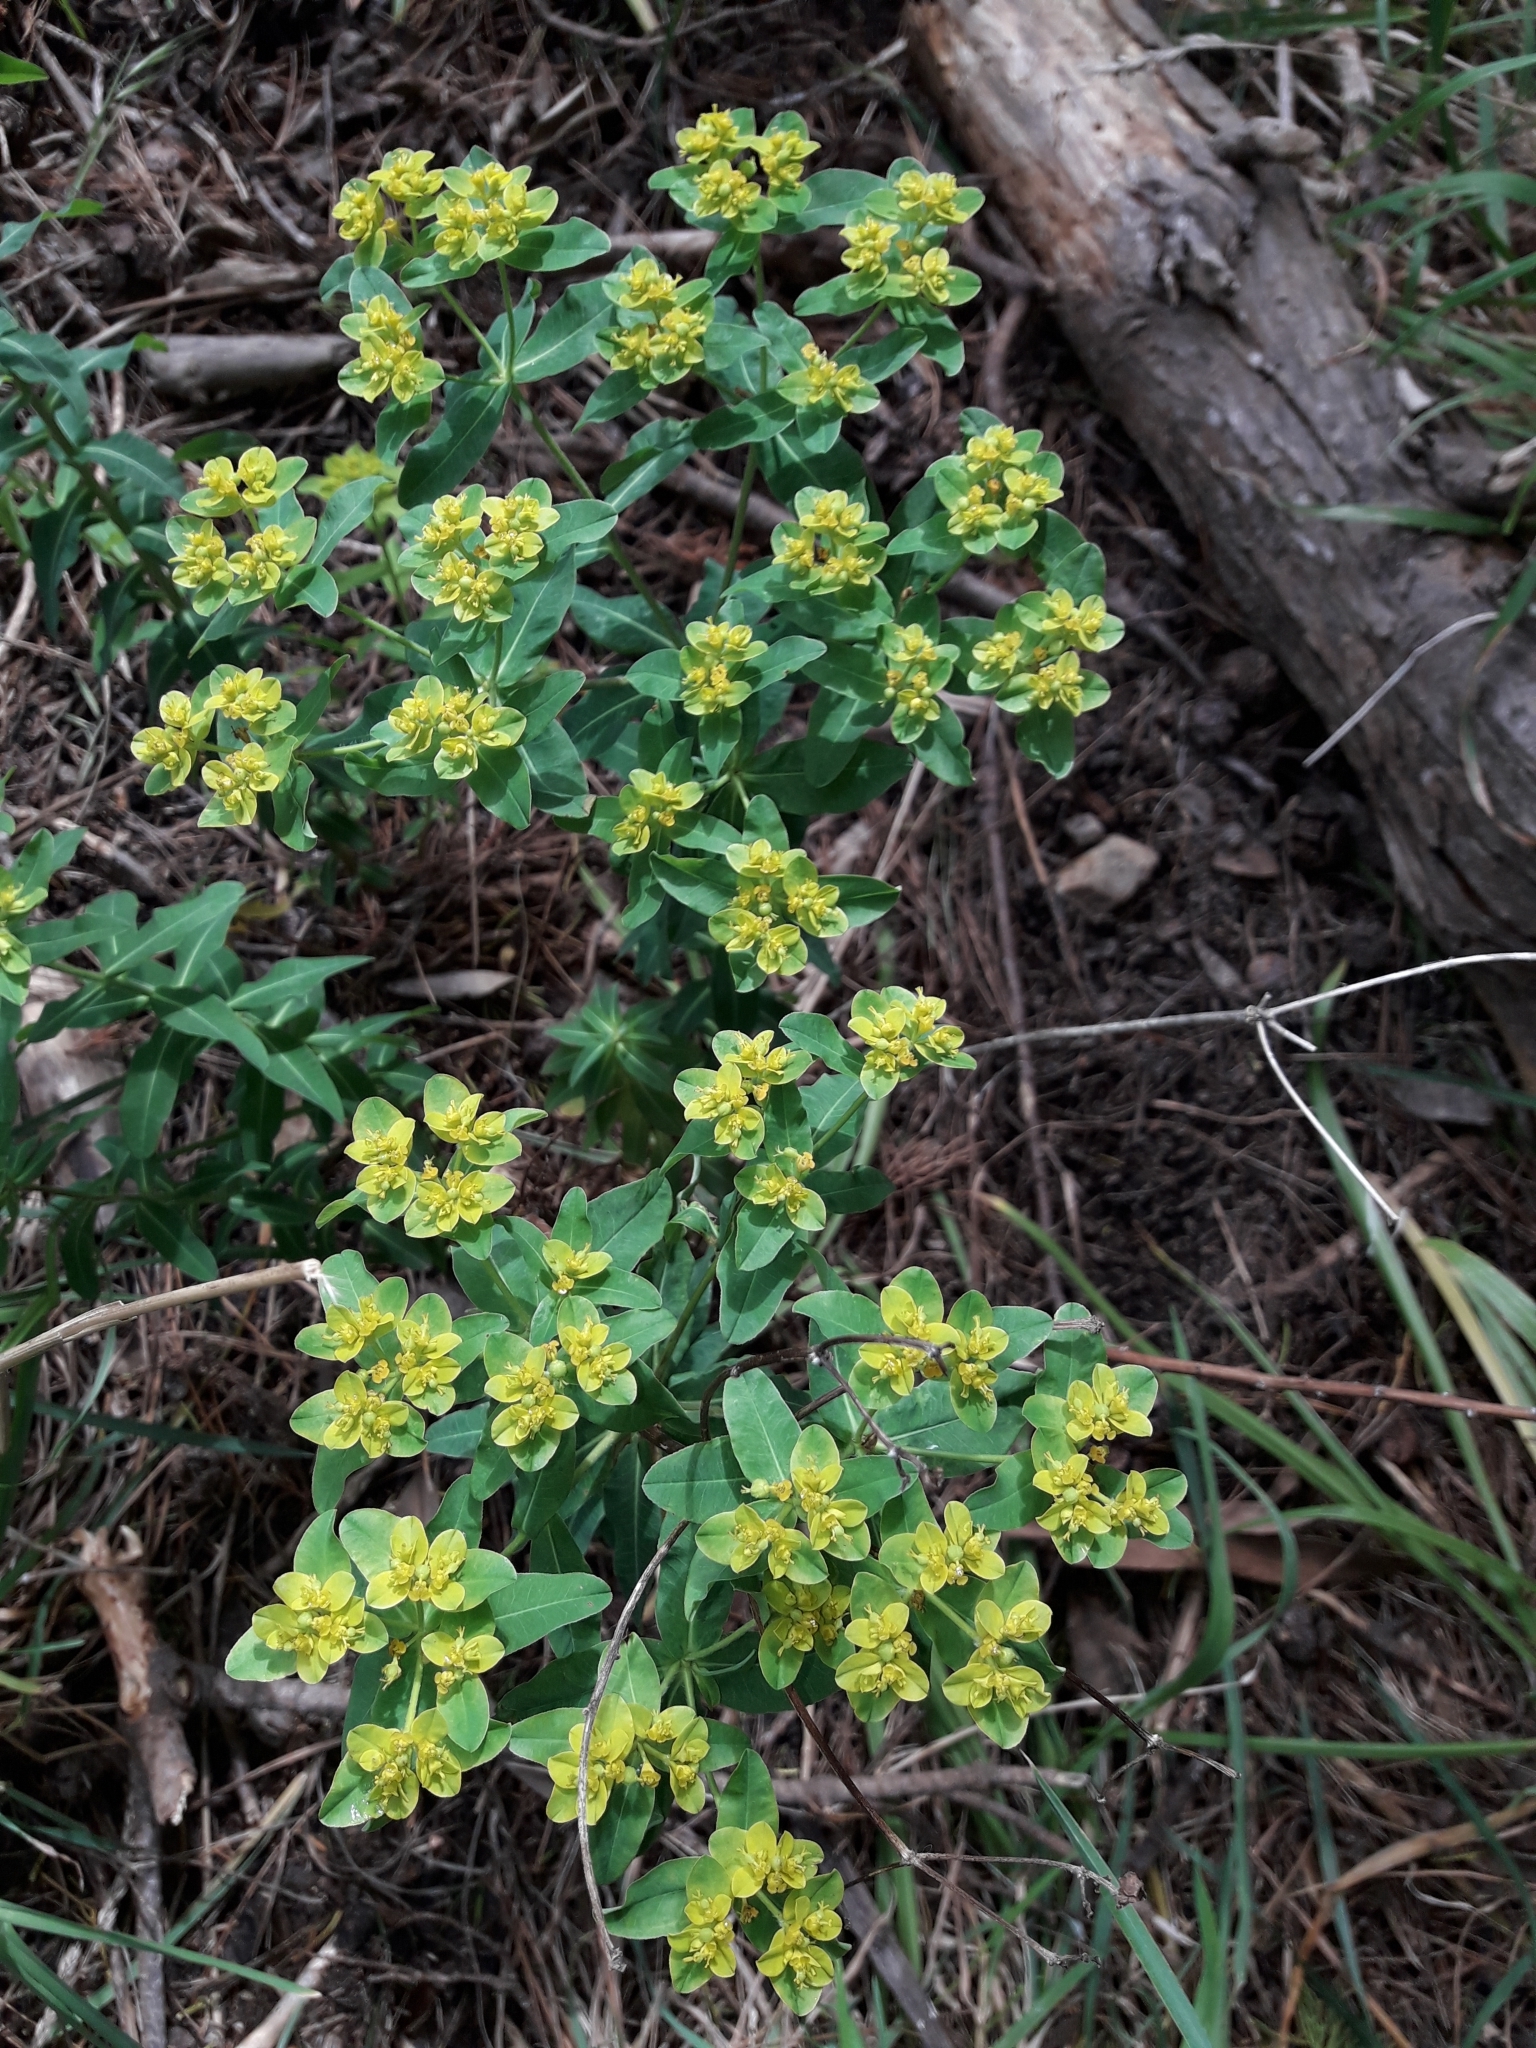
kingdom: Plantae
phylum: Tracheophyta
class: Magnoliopsida
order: Malpighiales
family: Euphorbiaceae
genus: Euphorbia
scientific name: Euphorbia oblongata
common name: Balkan spurge
